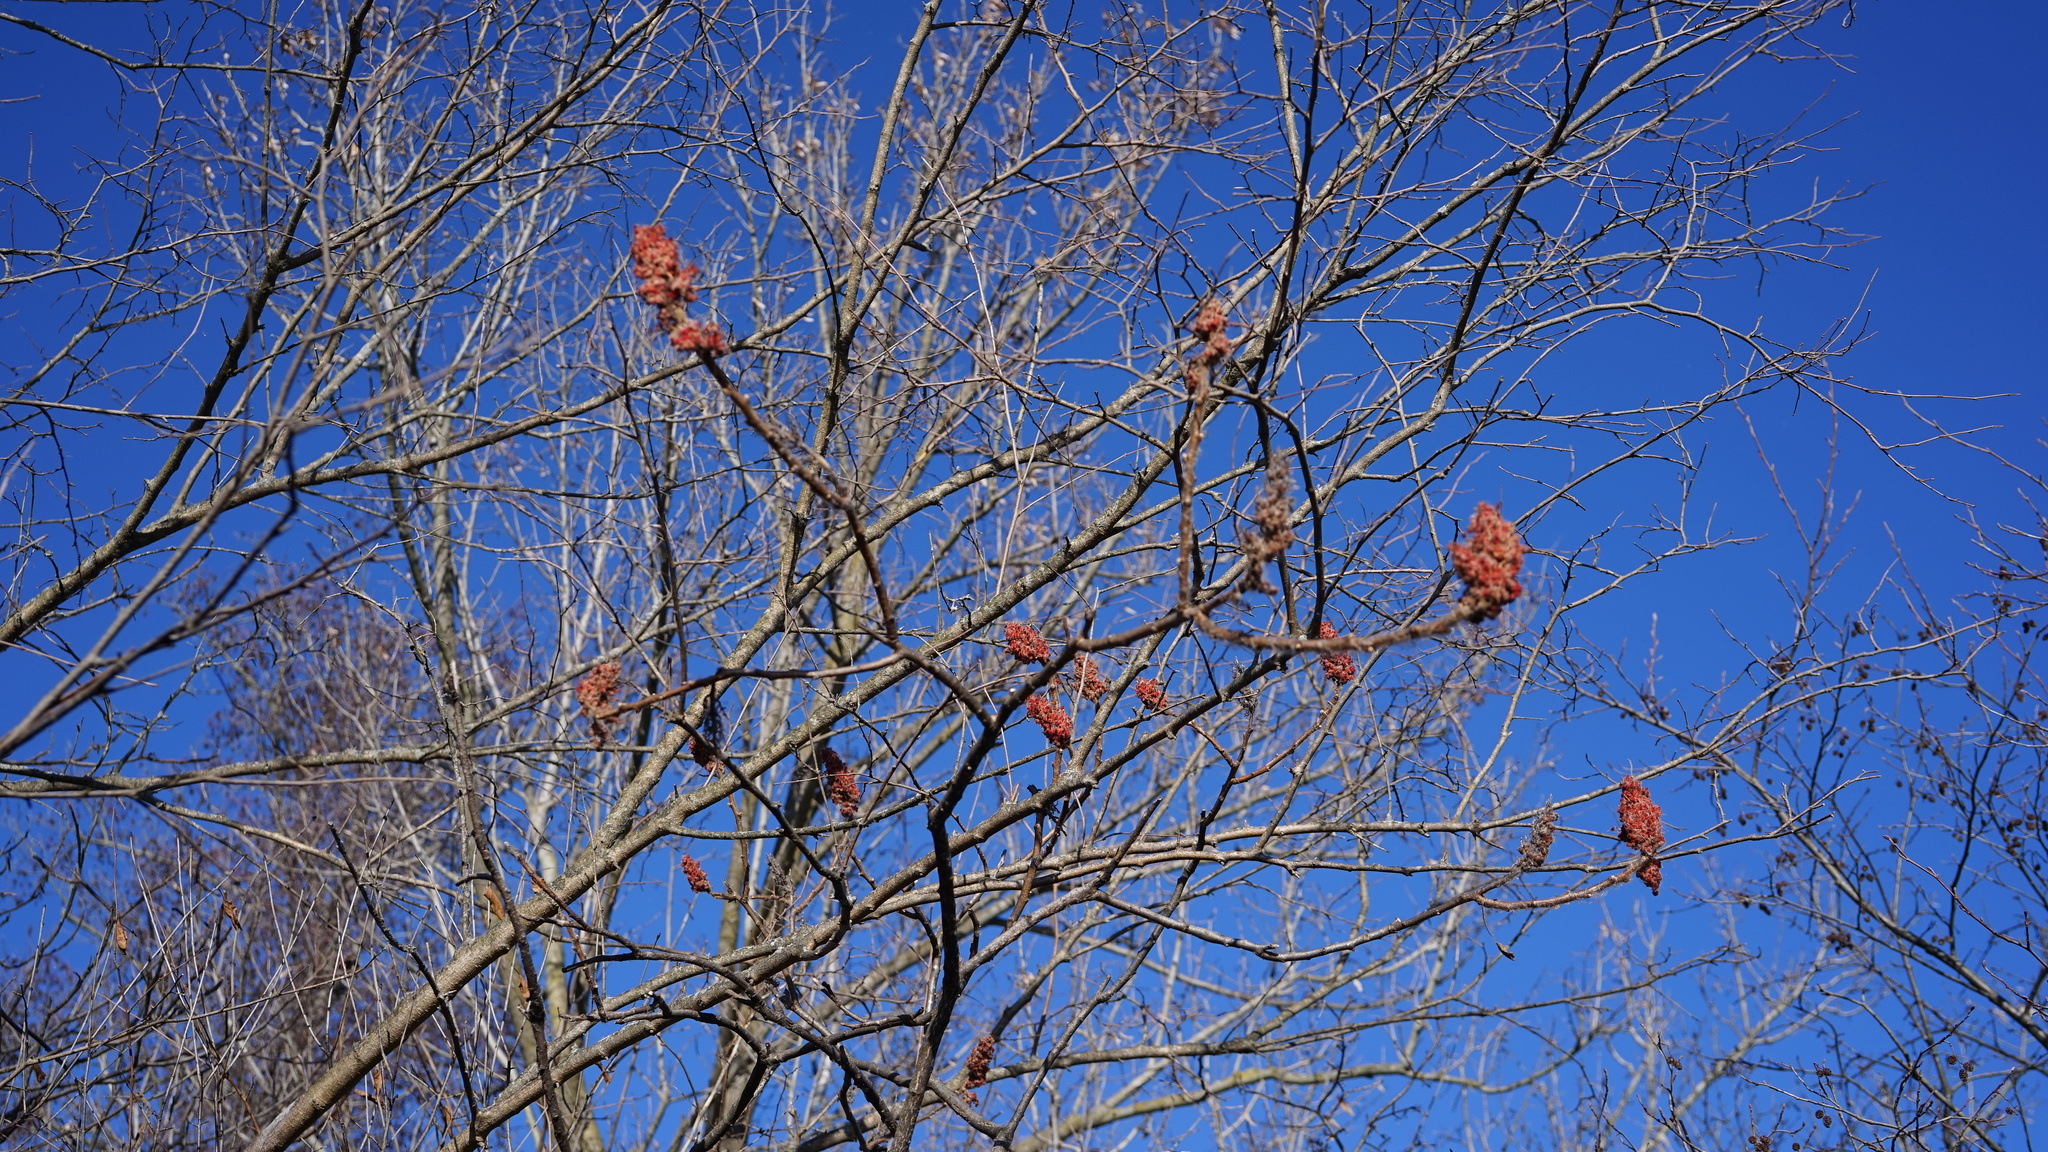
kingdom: Plantae
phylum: Tracheophyta
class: Magnoliopsida
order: Sapindales
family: Anacardiaceae
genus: Rhus
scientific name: Rhus typhina
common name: Staghorn sumac
